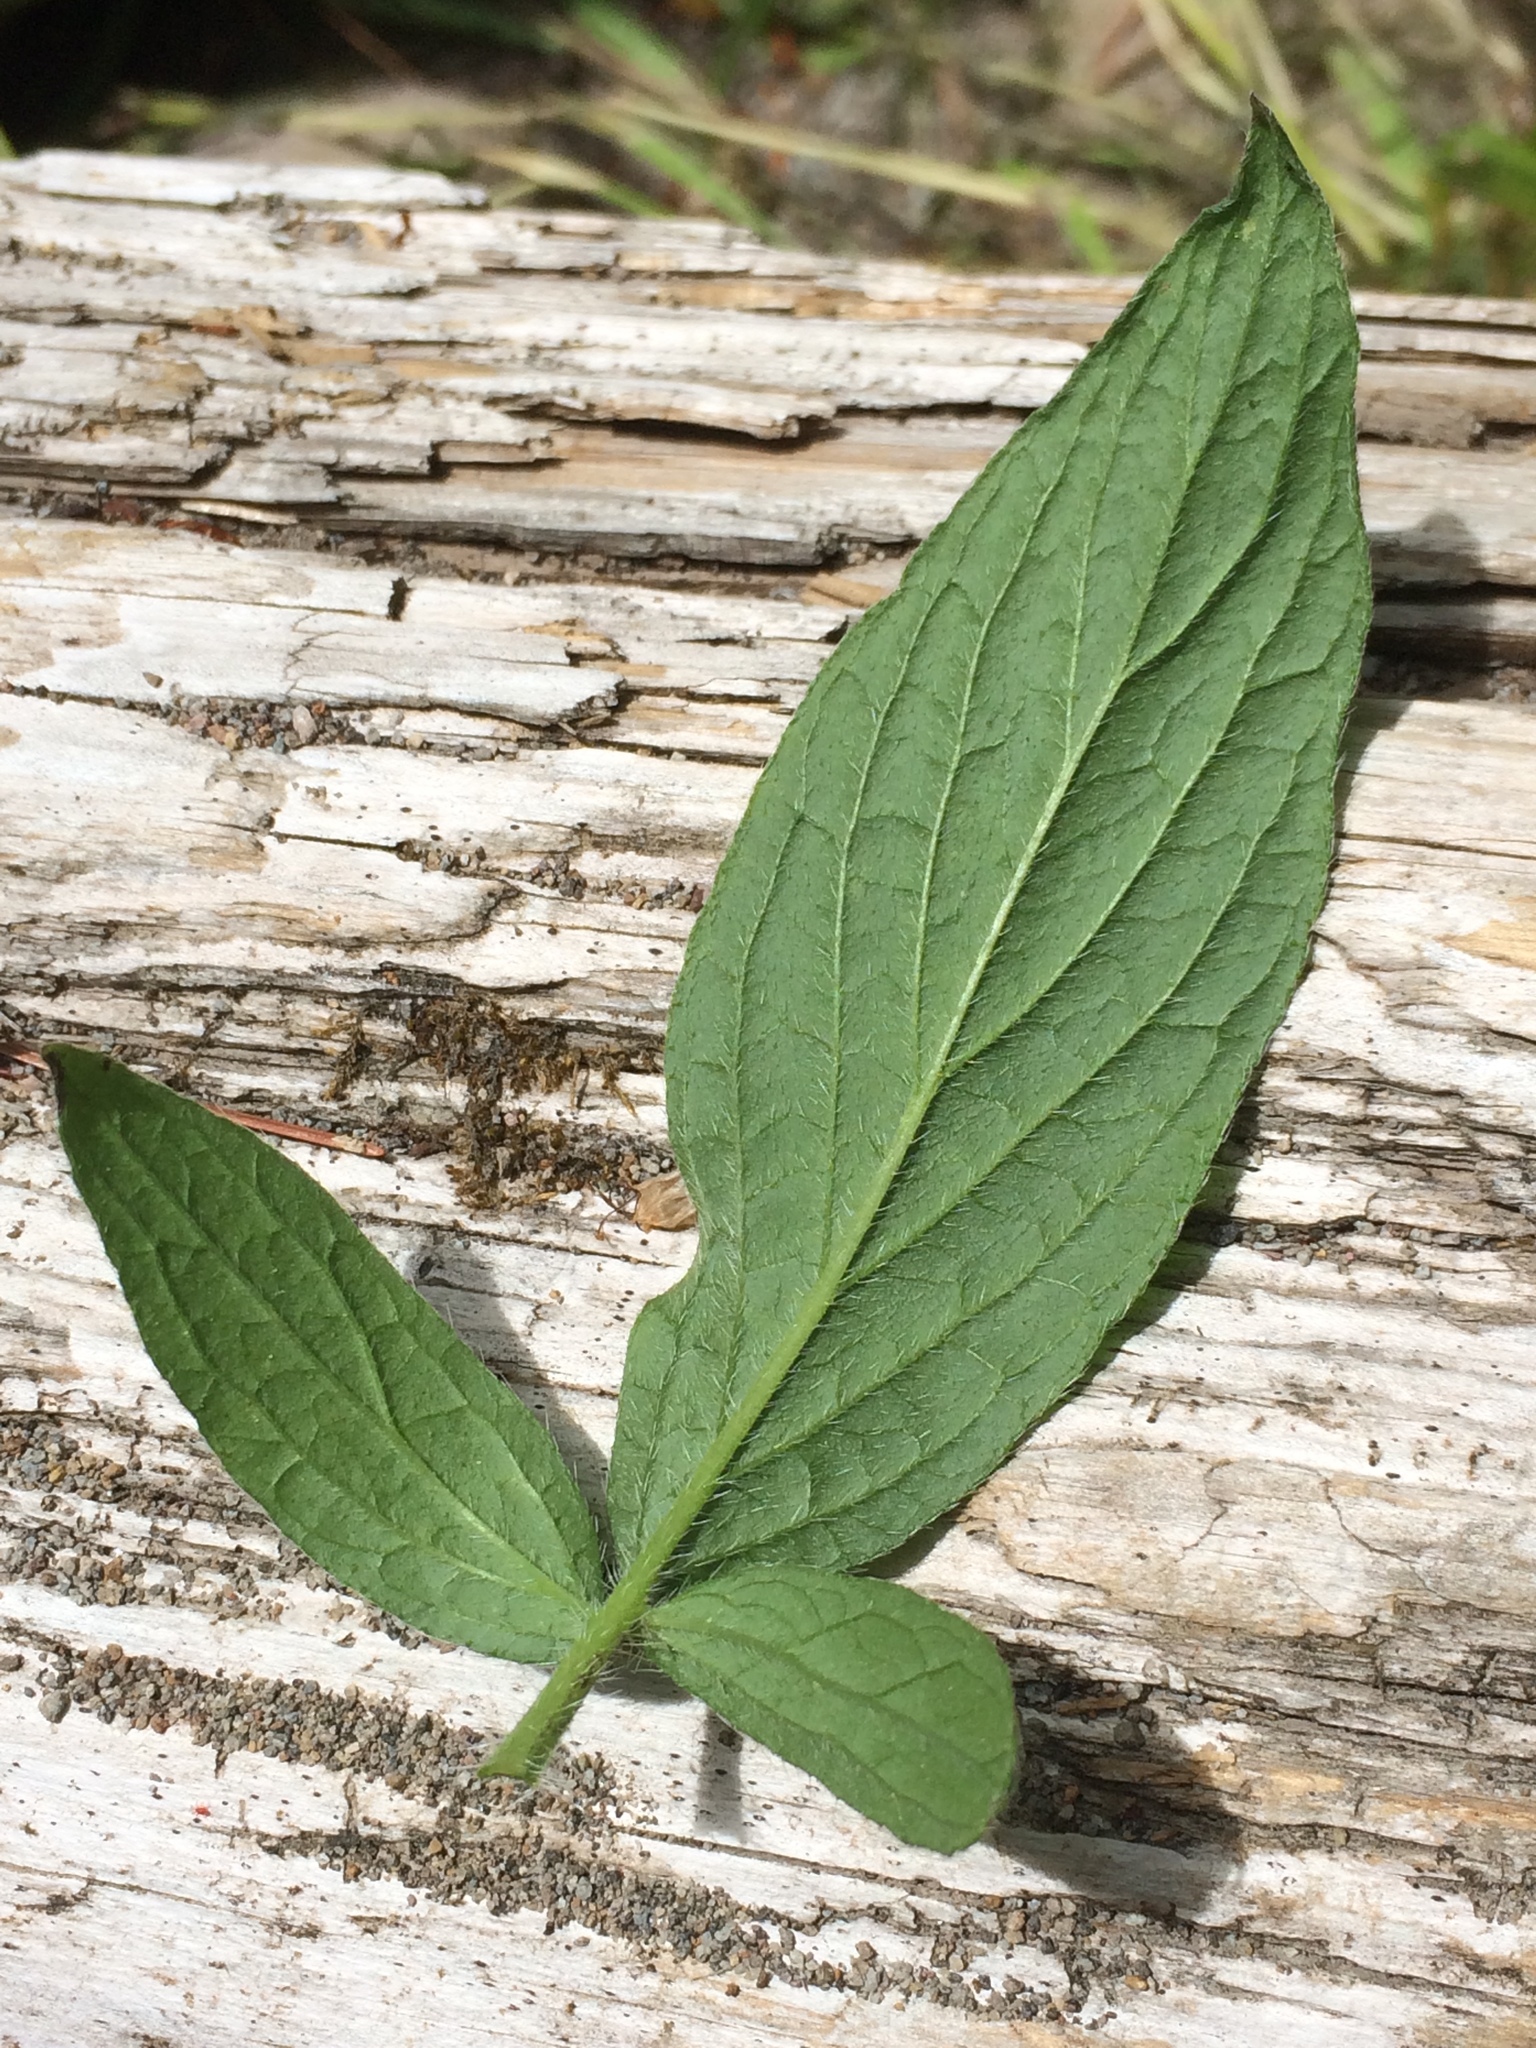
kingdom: Plantae
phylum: Tracheophyta
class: Magnoliopsida
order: Boraginales
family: Hydrophyllaceae
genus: Phacelia
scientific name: Phacelia nemoralis
